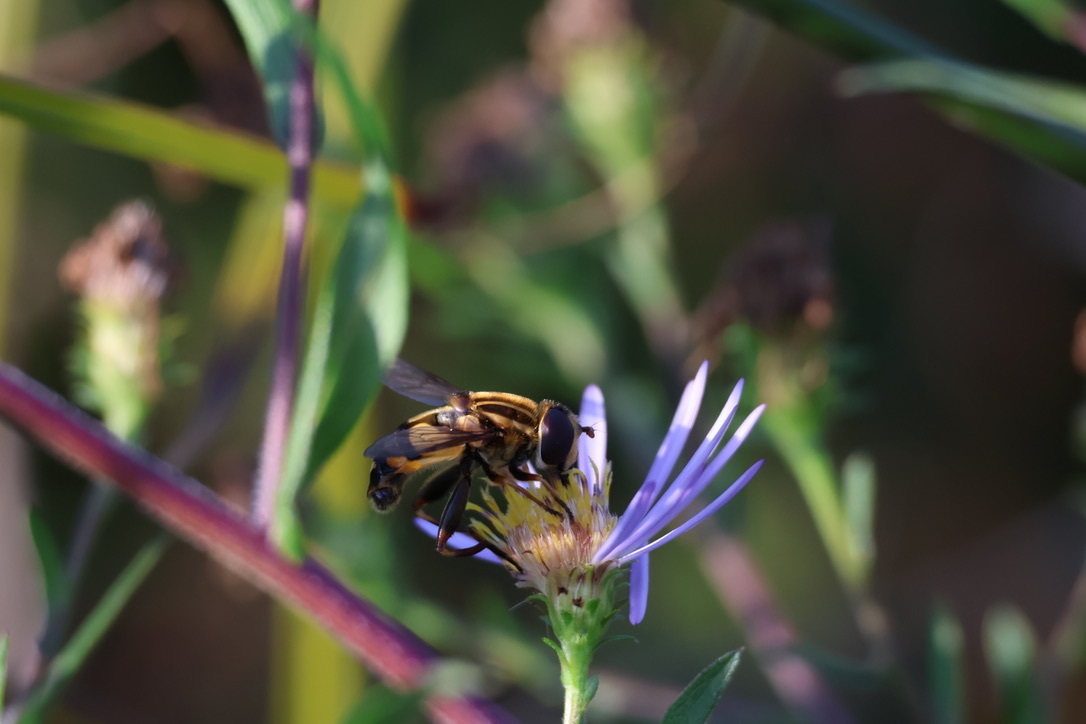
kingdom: Animalia
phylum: Arthropoda
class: Insecta
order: Diptera
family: Syrphidae
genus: Helophilus
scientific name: Helophilus fasciatus
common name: Narrow-headed marsh fly
